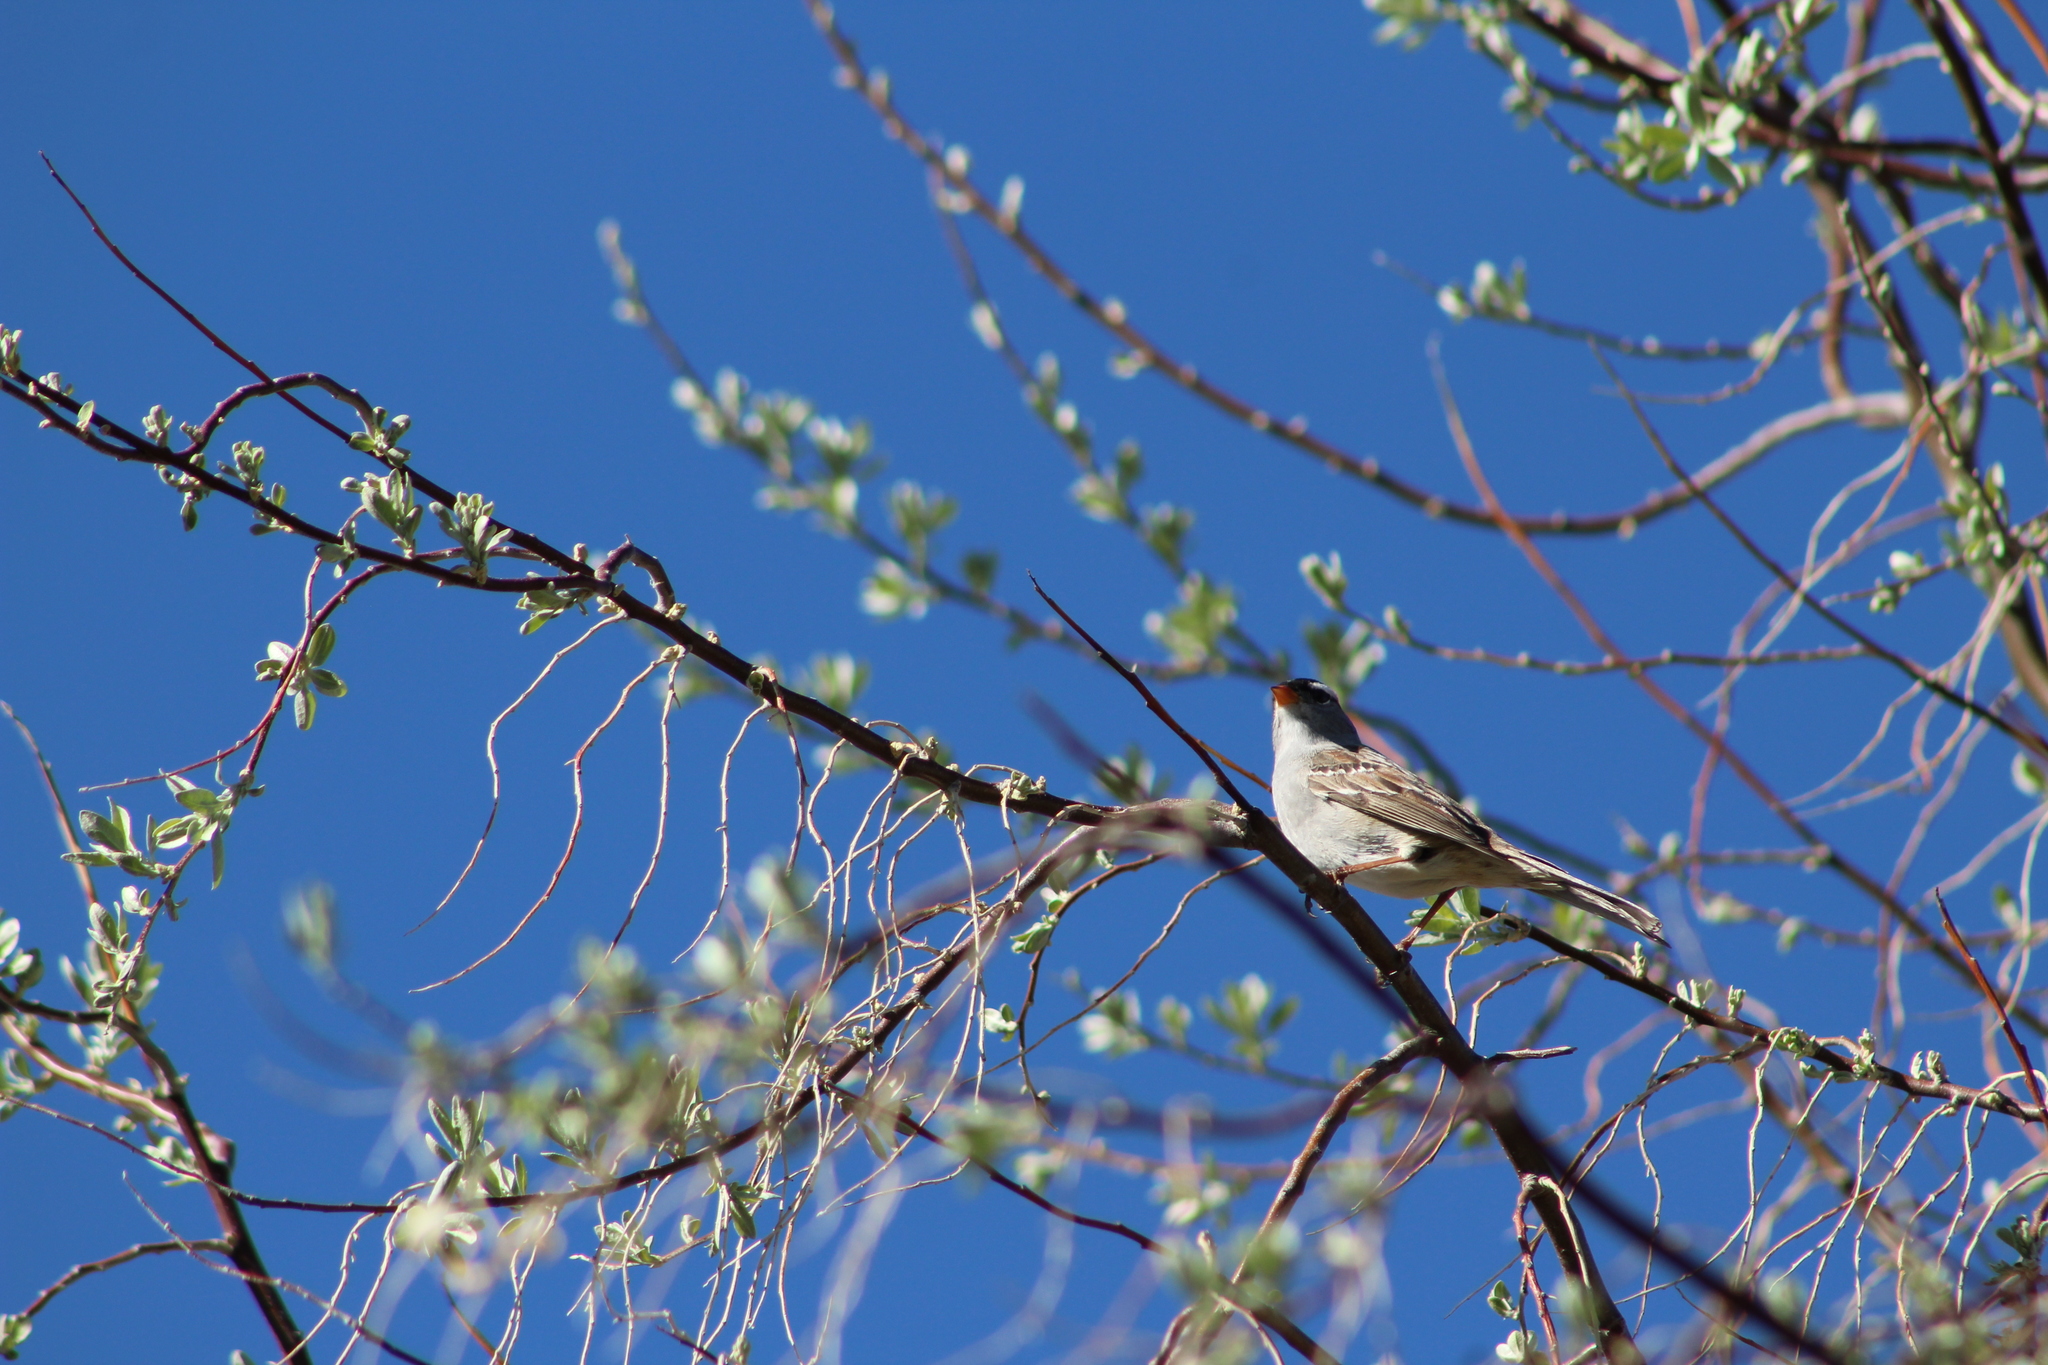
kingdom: Animalia
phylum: Chordata
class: Aves
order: Passeriformes
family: Passerellidae
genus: Zonotrichia
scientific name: Zonotrichia leucophrys
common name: White-crowned sparrow
